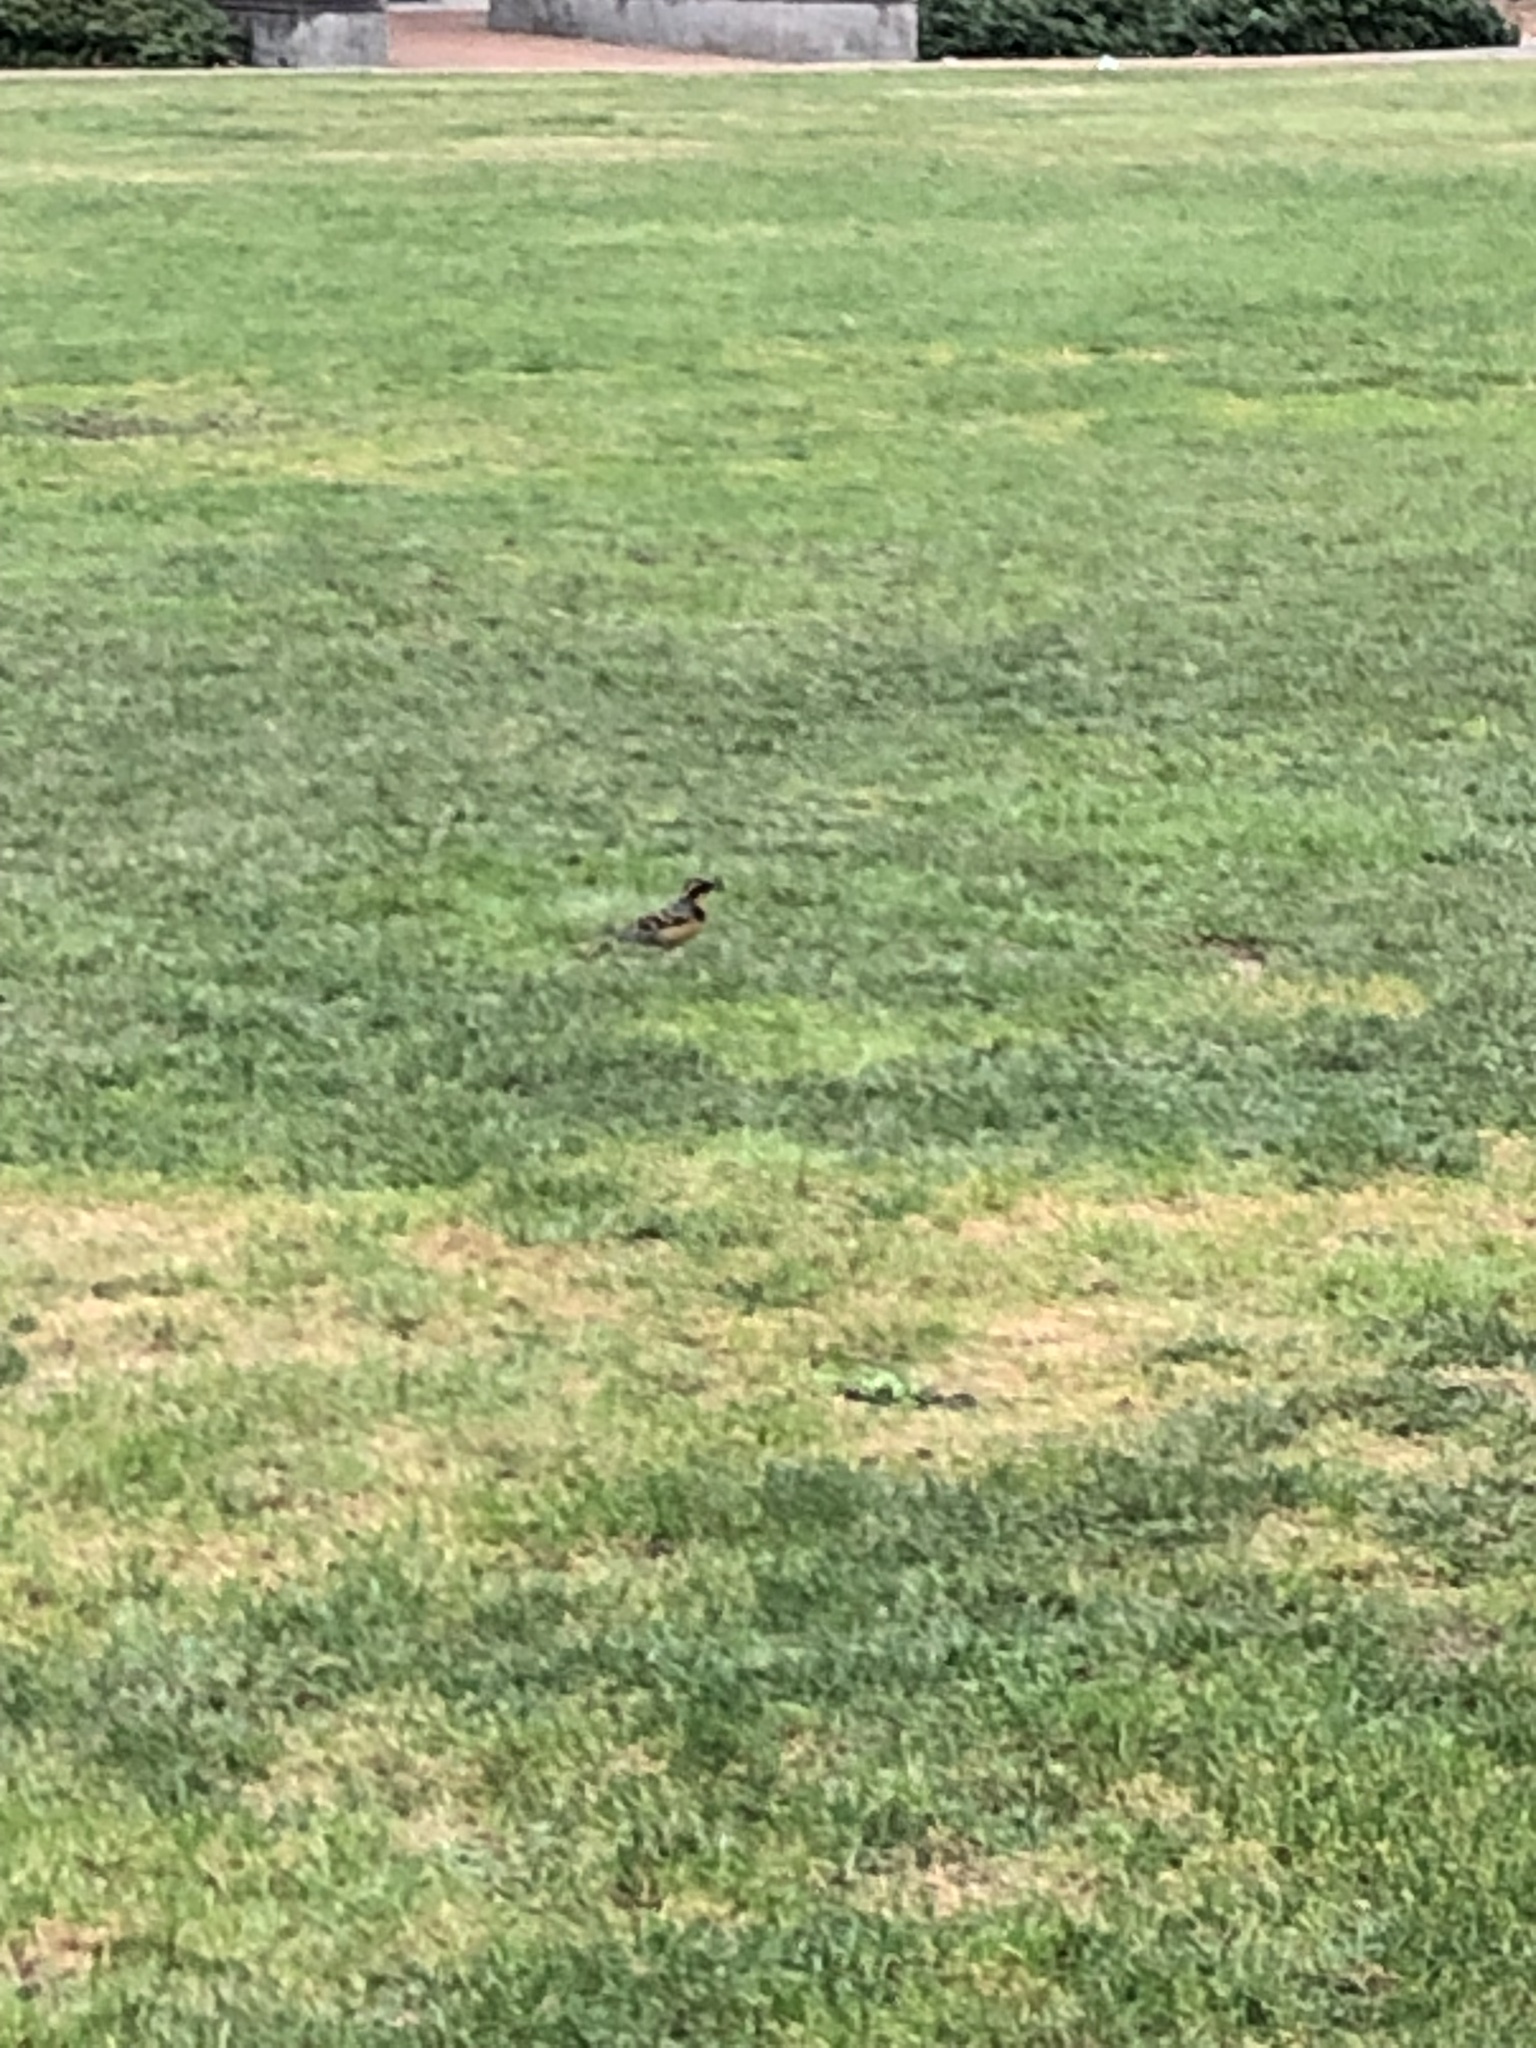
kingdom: Animalia
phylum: Chordata
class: Aves
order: Passeriformes
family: Turdidae
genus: Ixoreus
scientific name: Ixoreus naevius
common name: Varied thrush
